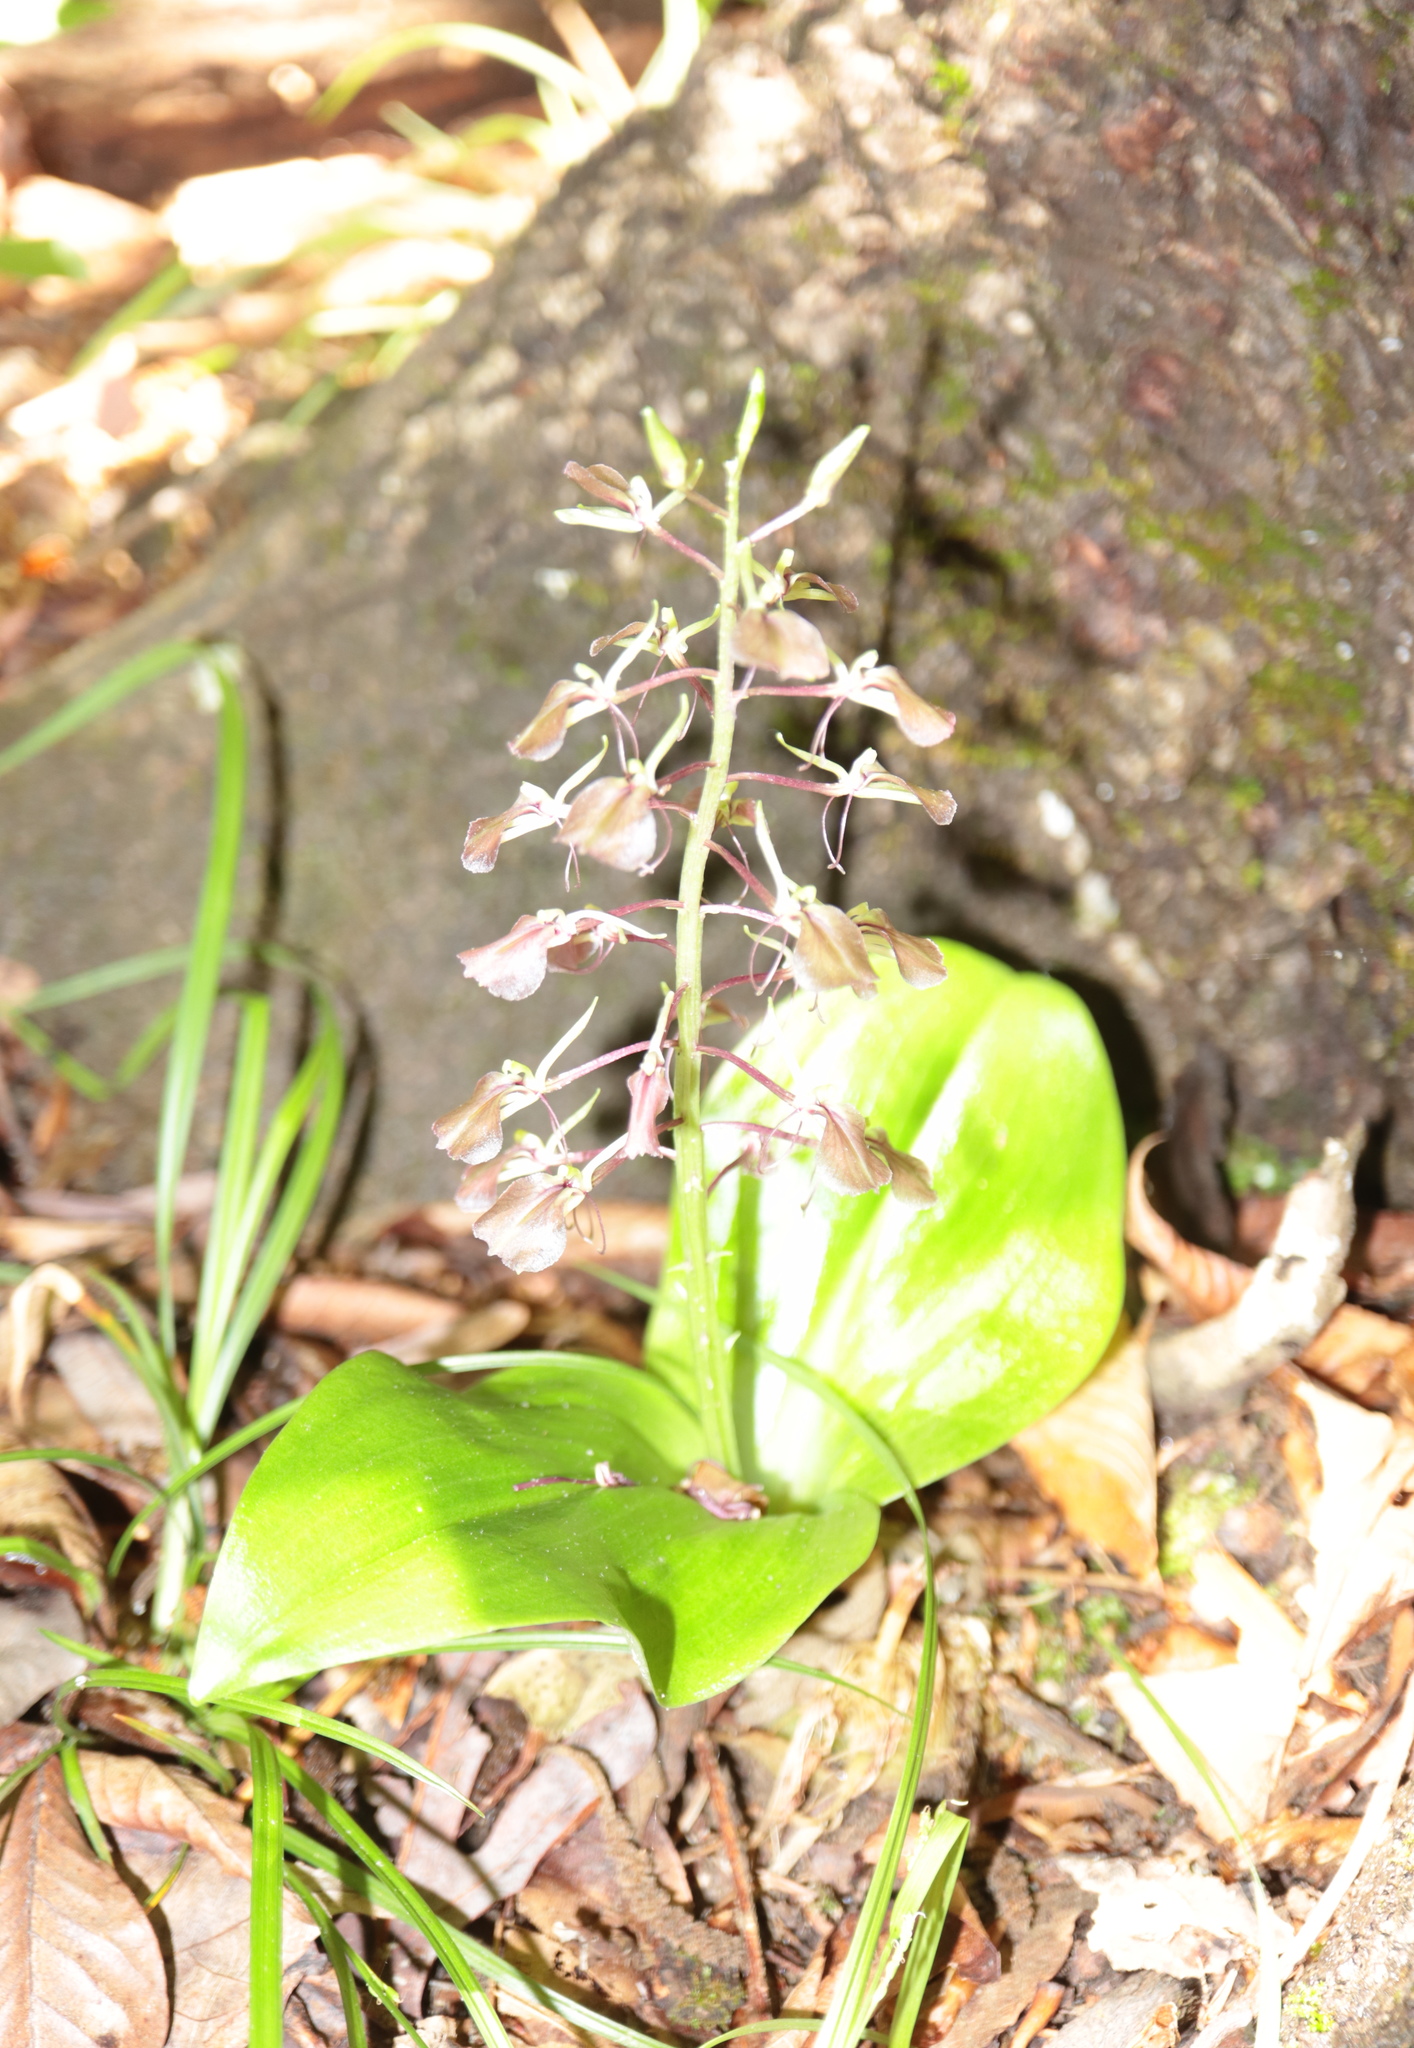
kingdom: Plantae
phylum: Tracheophyta
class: Liliopsida
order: Asparagales
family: Orchidaceae
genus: Liparis
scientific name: Liparis liliifolia
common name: Brown wide-lip orchid
